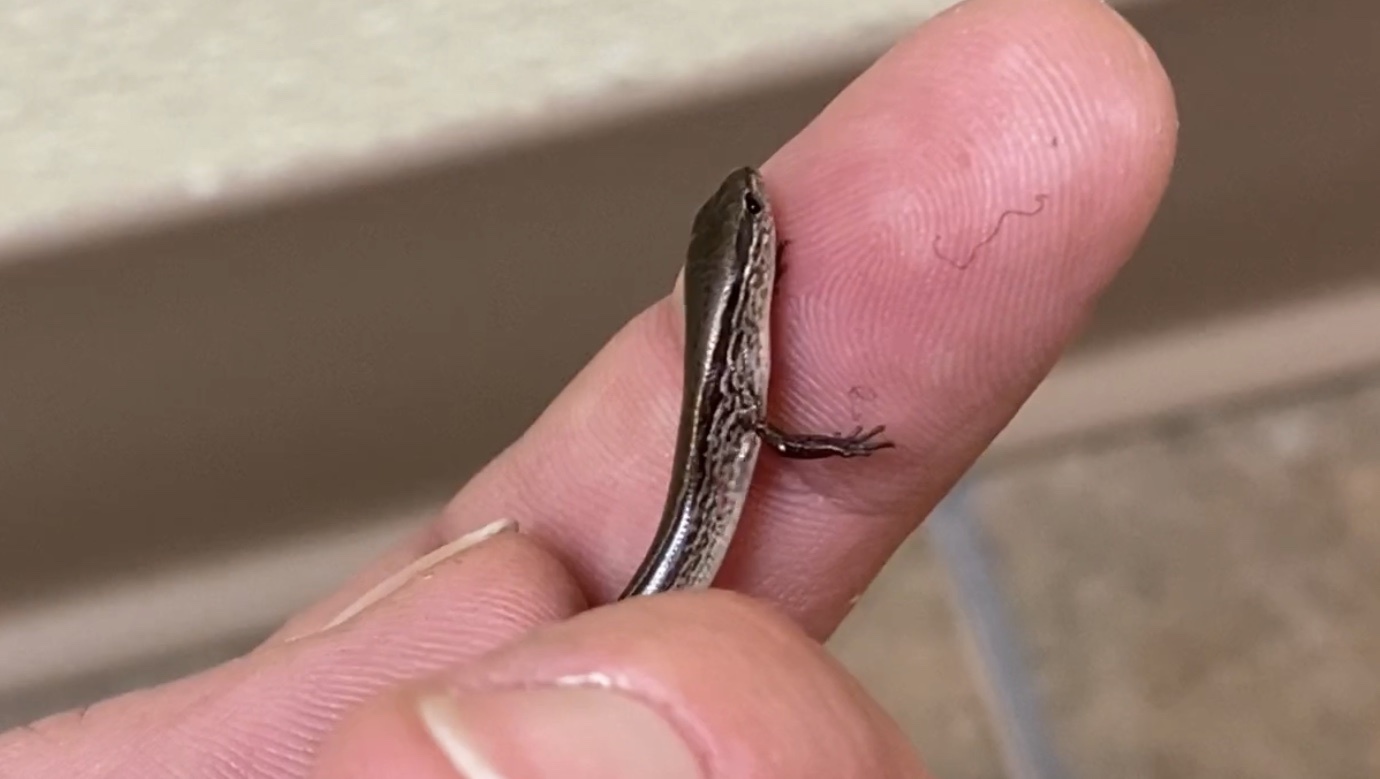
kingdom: Animalia
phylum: Chordata
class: Squamata
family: Scincidae
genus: Scincella
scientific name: Scincella lateralis
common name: Ground skink
